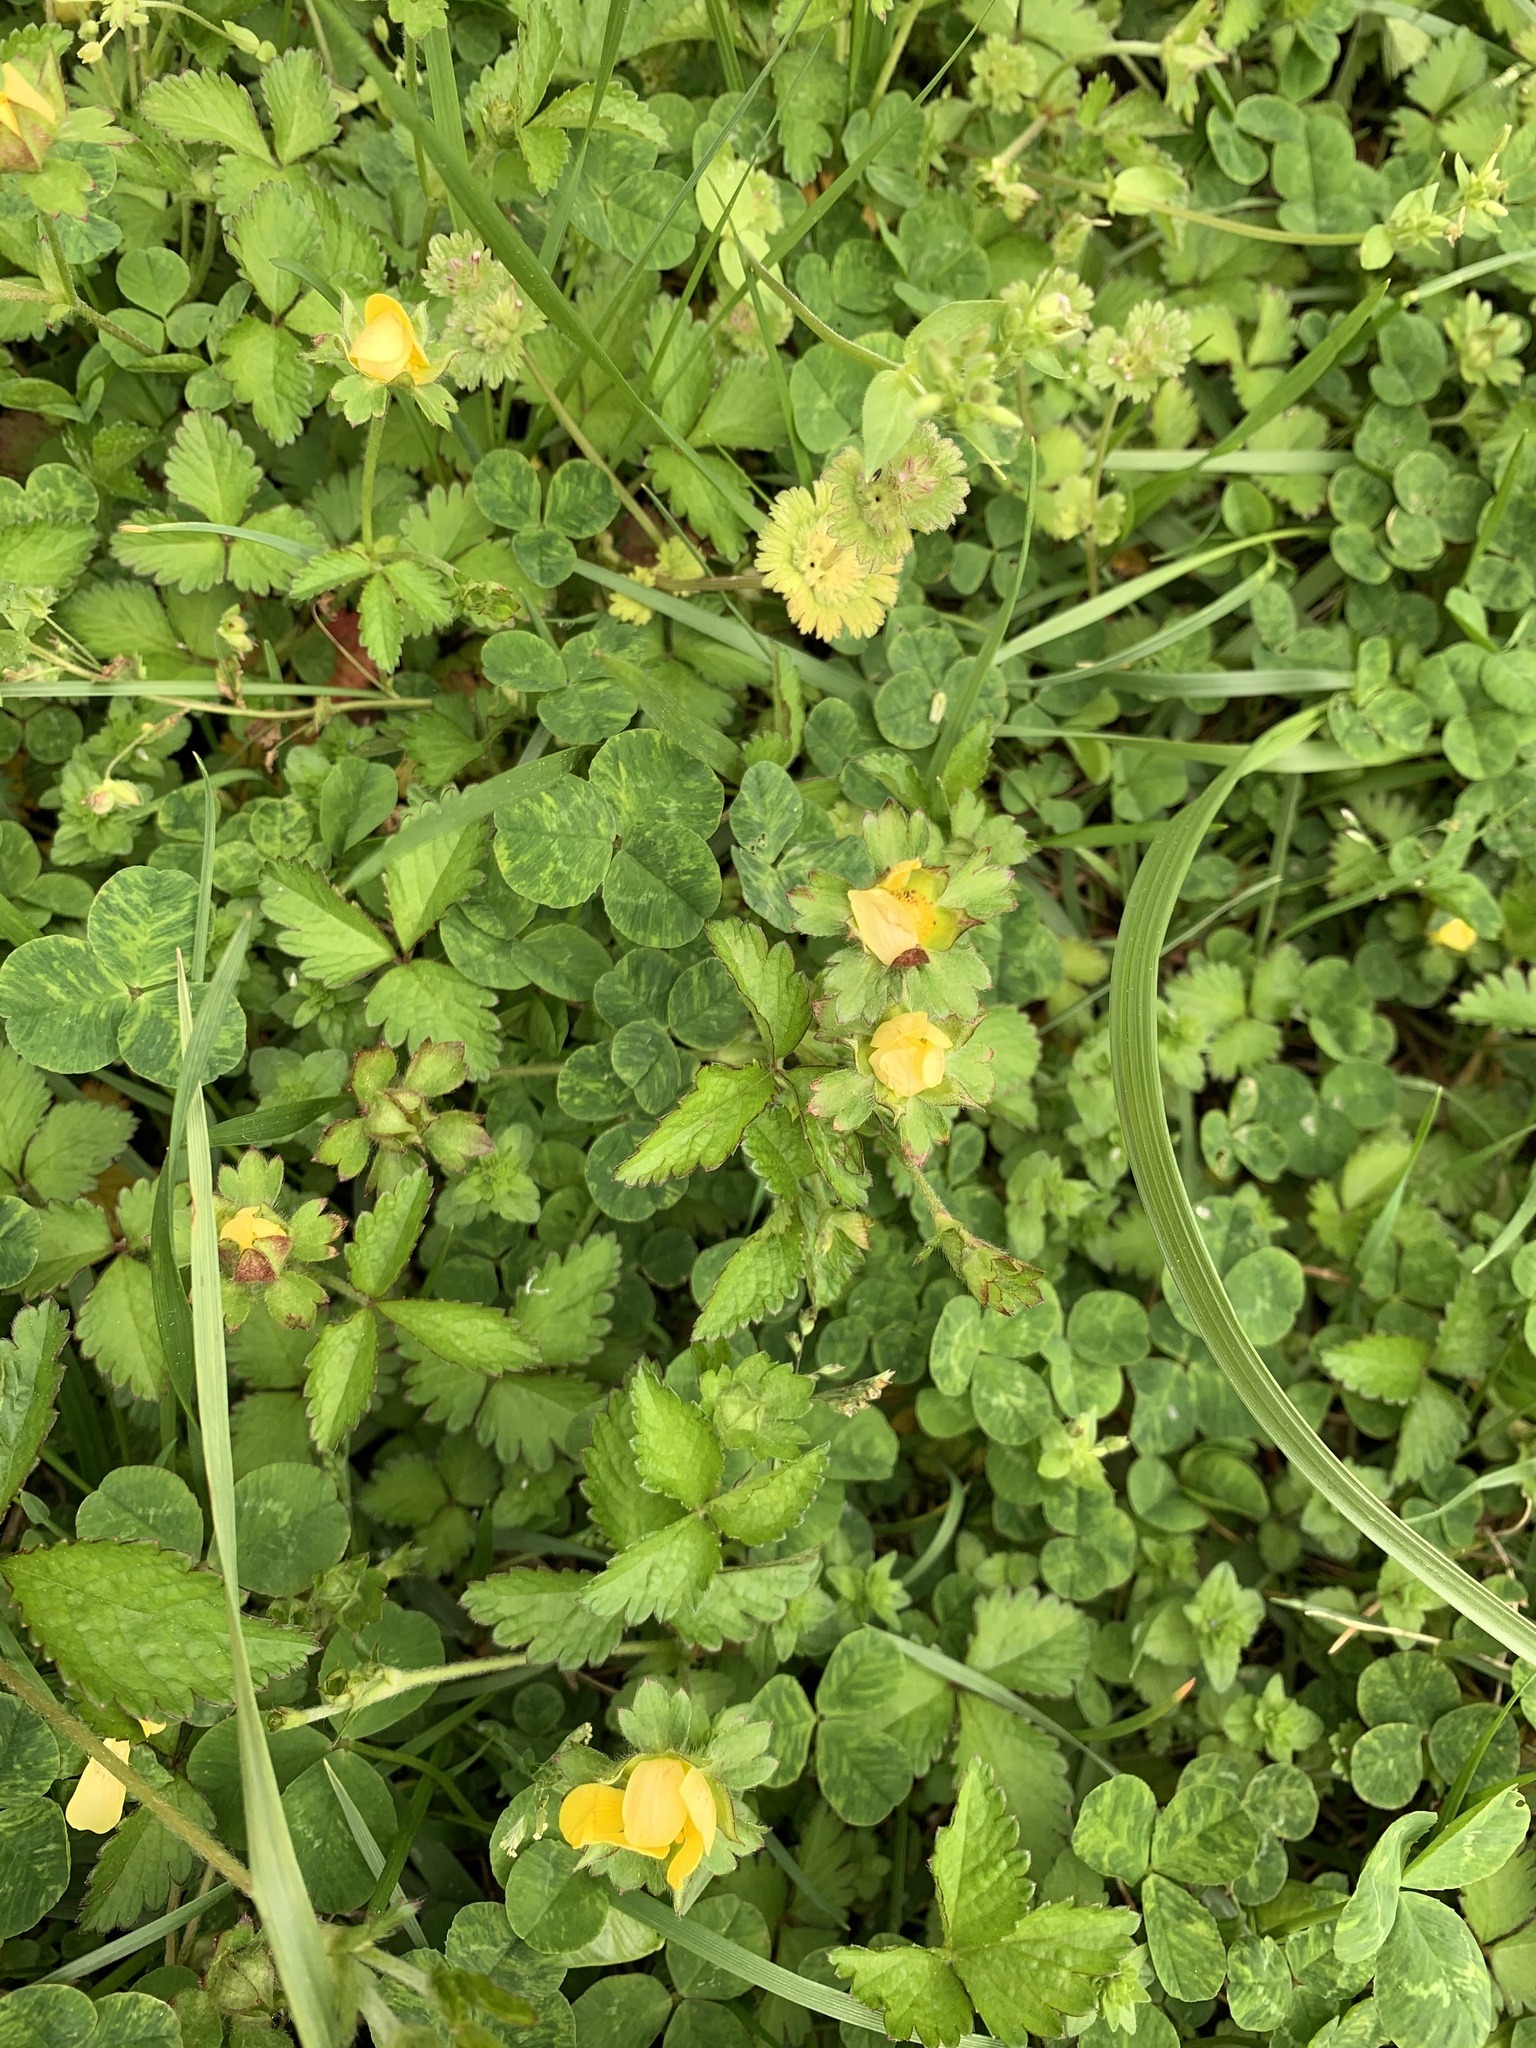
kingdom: Plantae
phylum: Tracheophyta
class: Magnoliopsida
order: Rosales
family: Rosaceae
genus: Potentilla
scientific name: Potentilla indica
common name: Yellow-flowered strawberry
